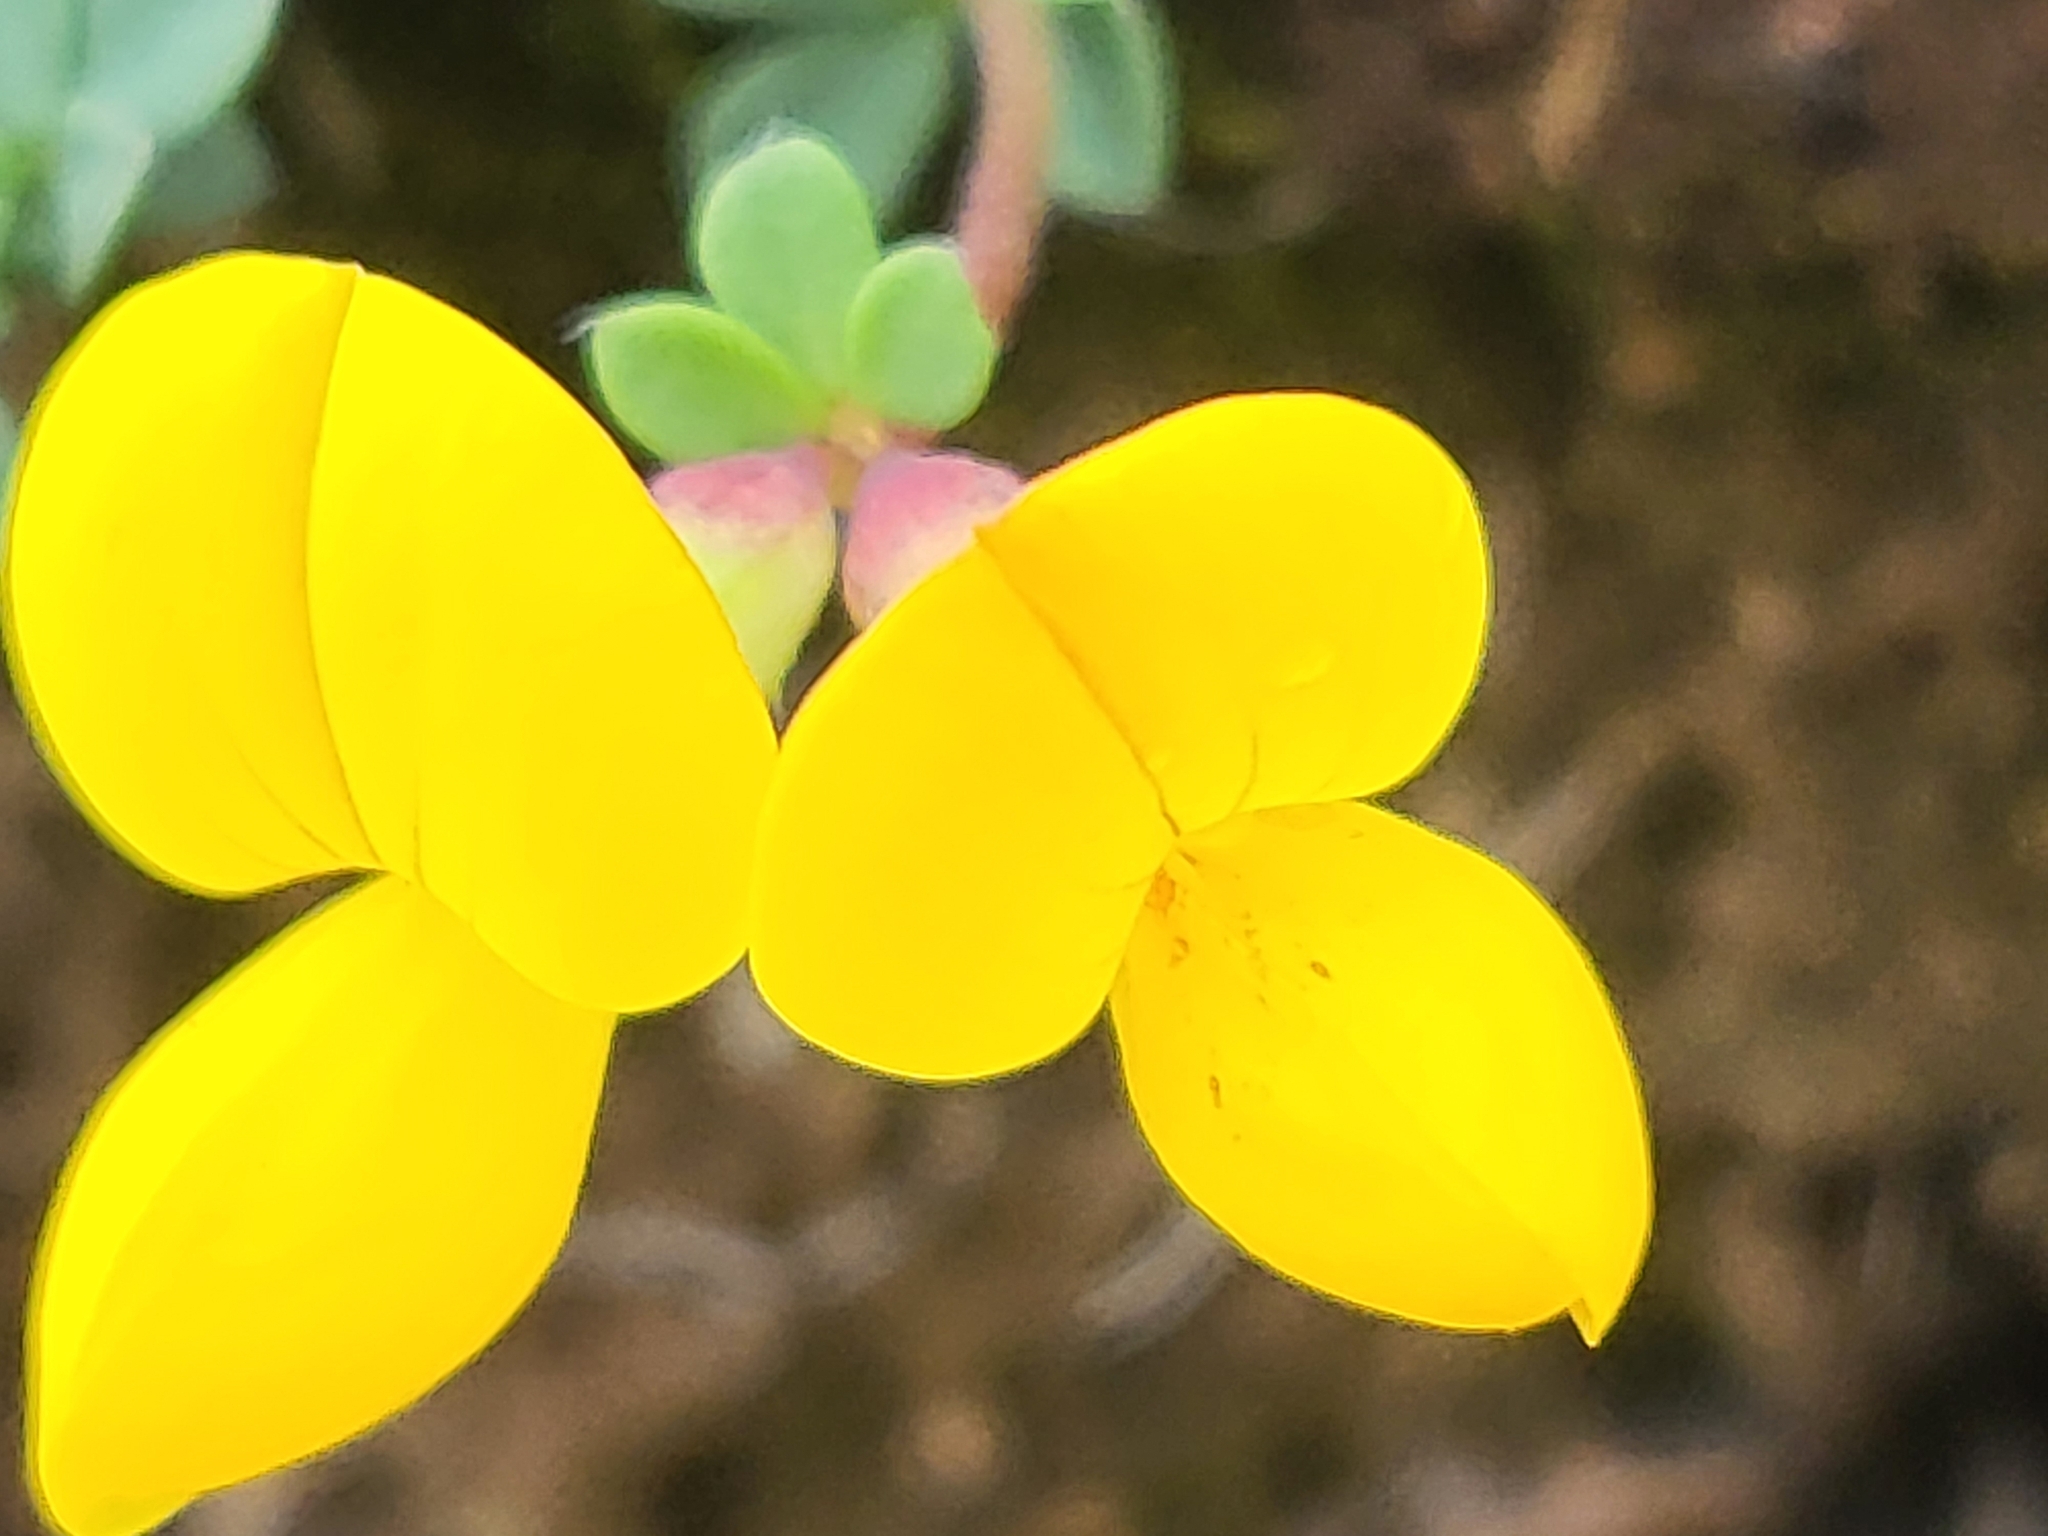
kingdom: Plantae
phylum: Tracheophyta
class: Magnoliopsida
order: Fabales
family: Fabaceae
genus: Lotus
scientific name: Lotus corniculatus
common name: Common bird's-foot-trefoil
